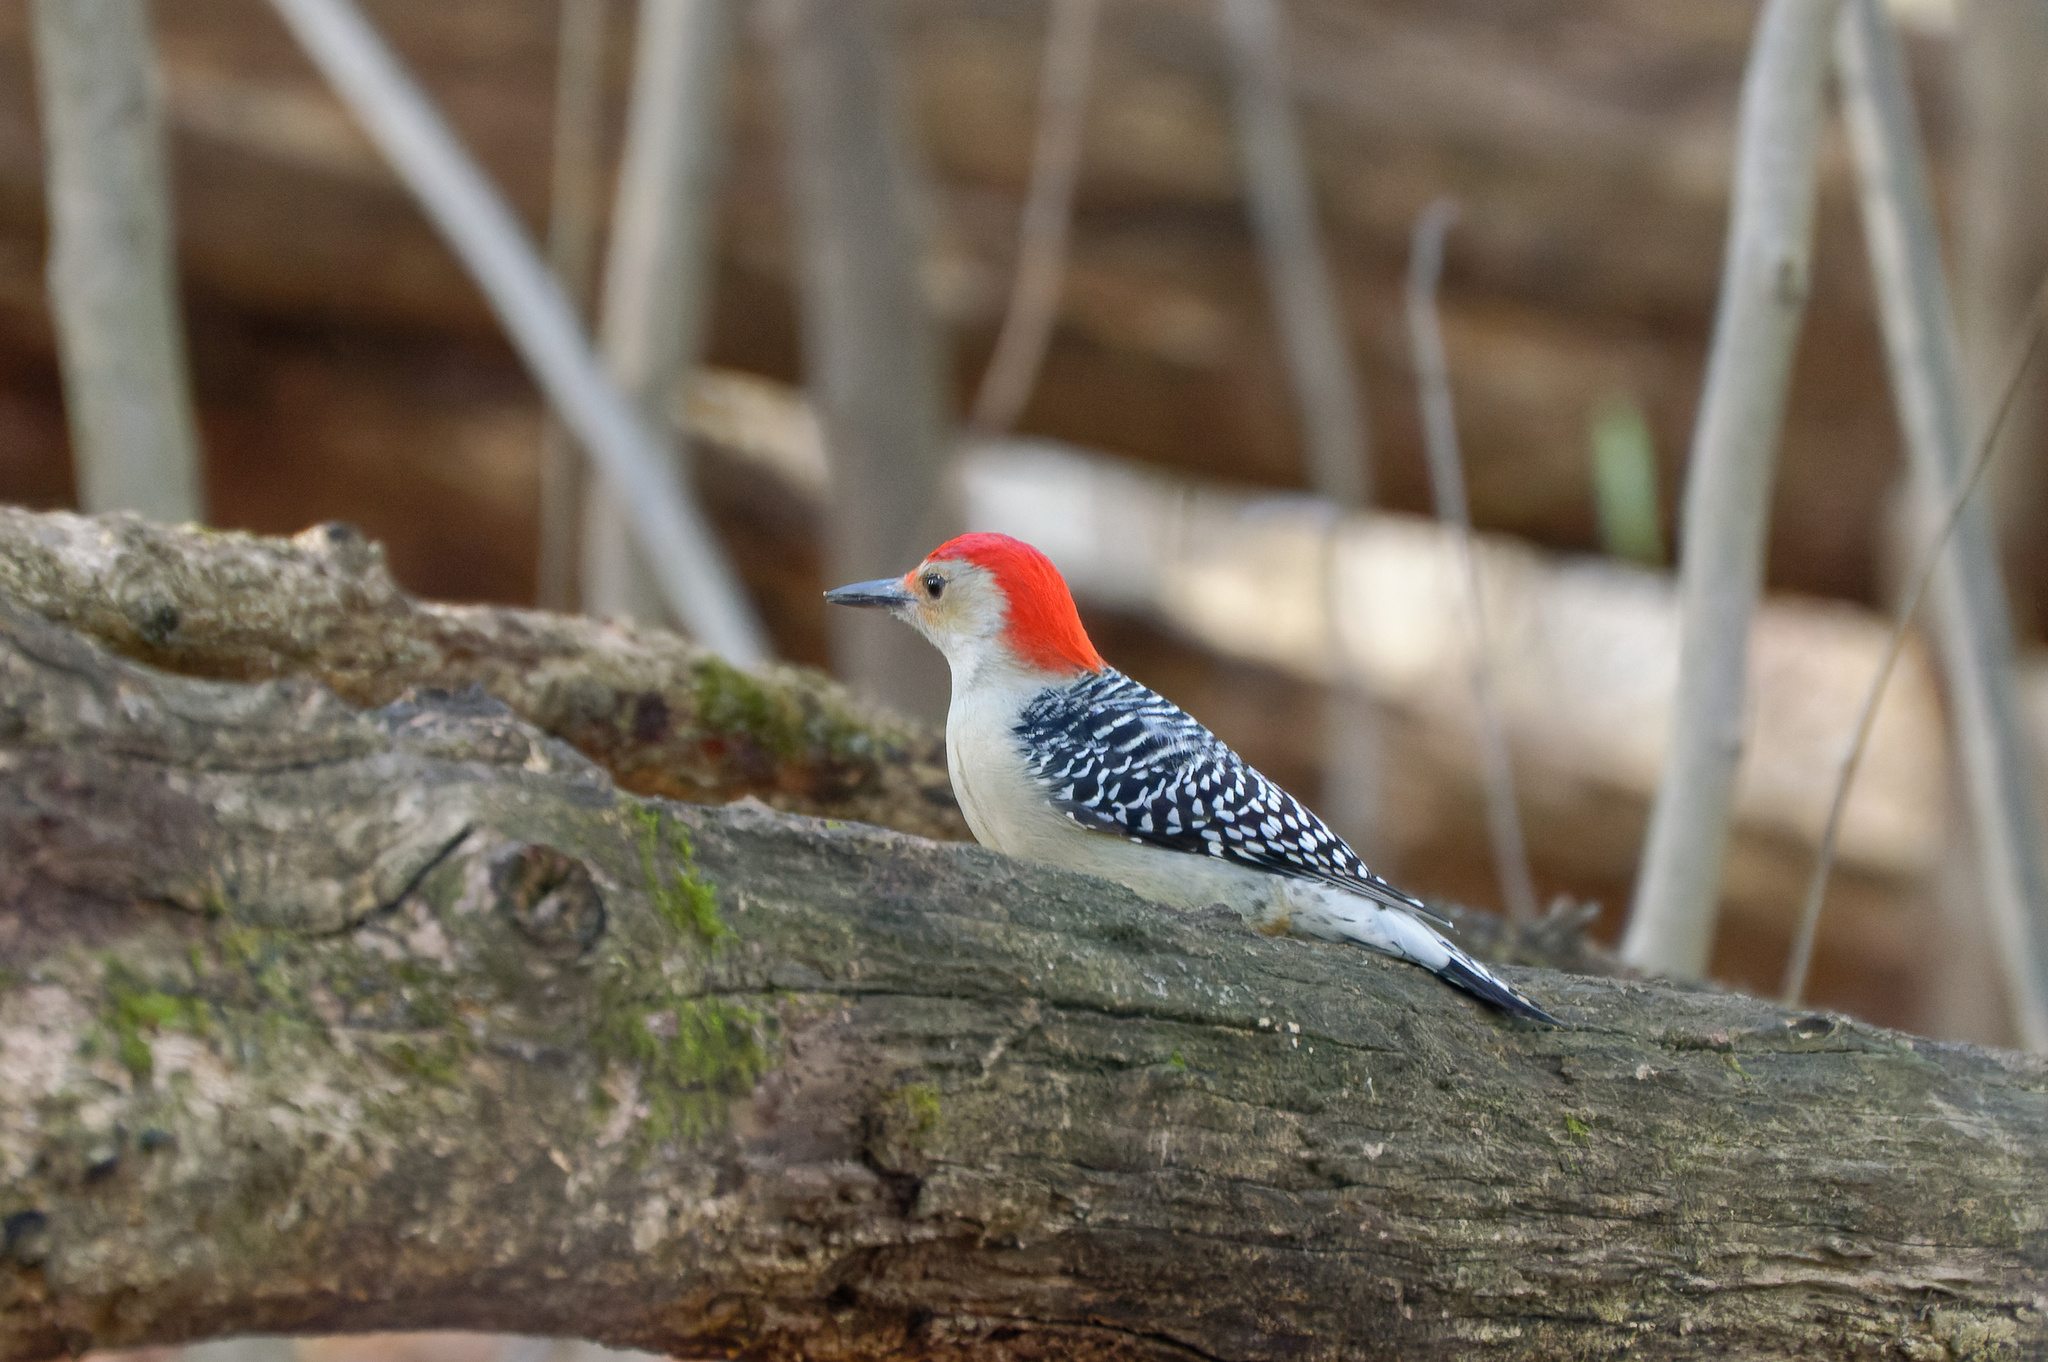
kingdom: Animalia
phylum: Chordata
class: Aves
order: Piciformes
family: Picidae
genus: Melanerpes
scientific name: Melanerpes carolinus
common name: Red-bellied woodpecker
